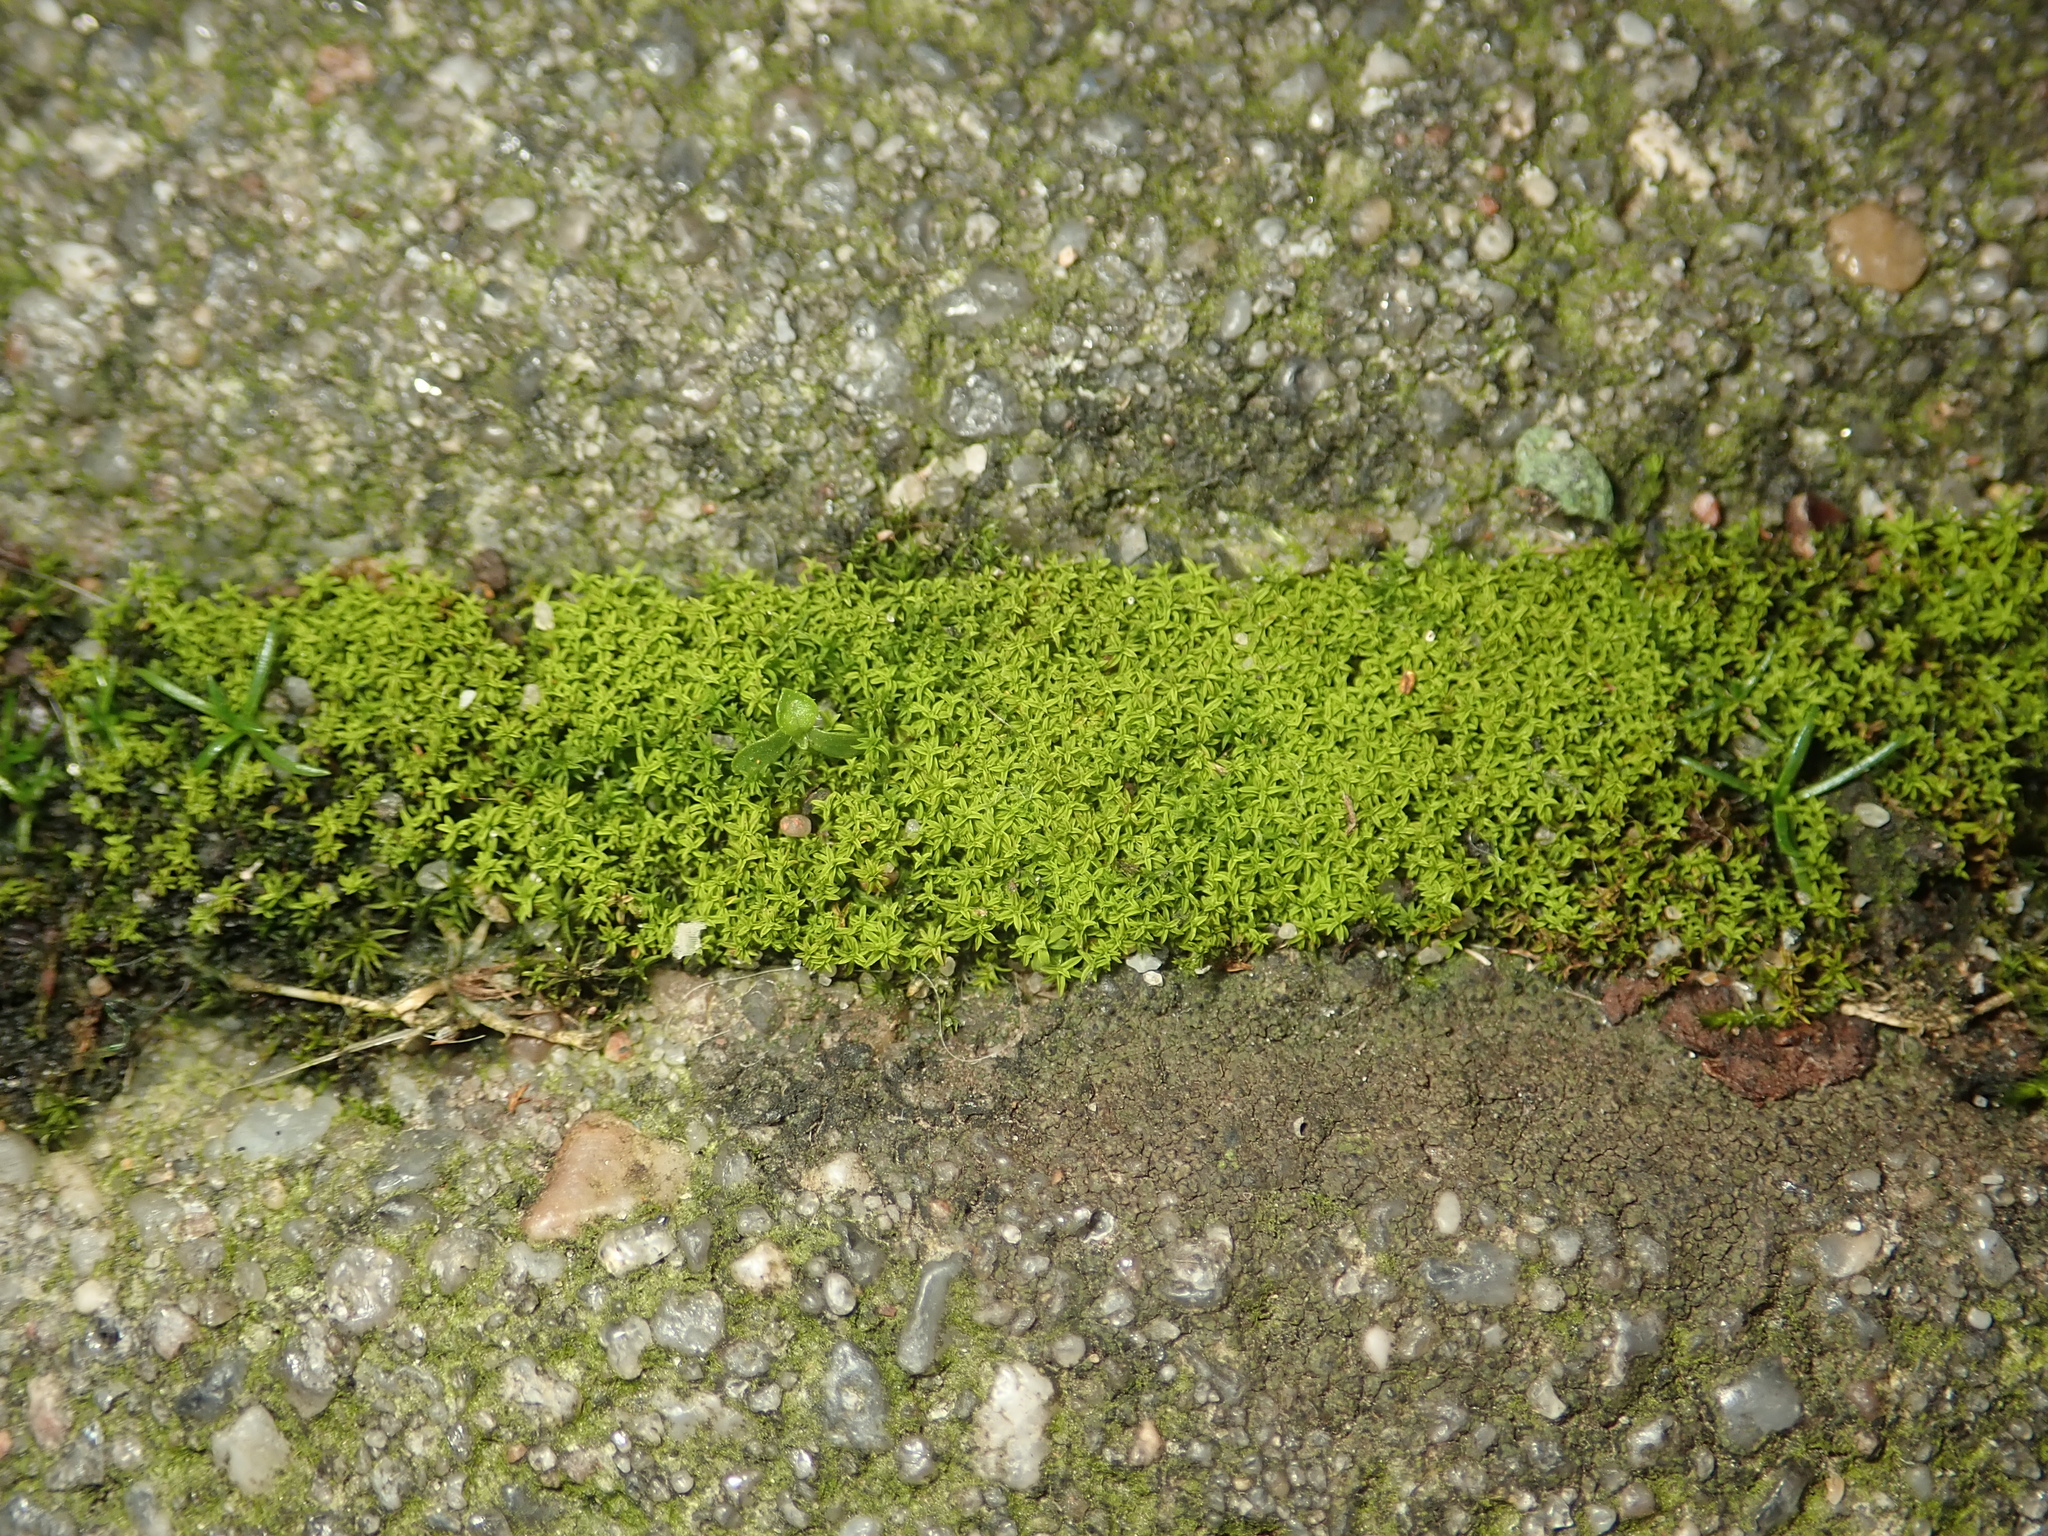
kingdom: Plantae
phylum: Bryophyta
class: Bryopsida
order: Pottiales
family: Pottiaceae
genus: Barbula
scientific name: Barbula unguiculata
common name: Prickly beard moss
